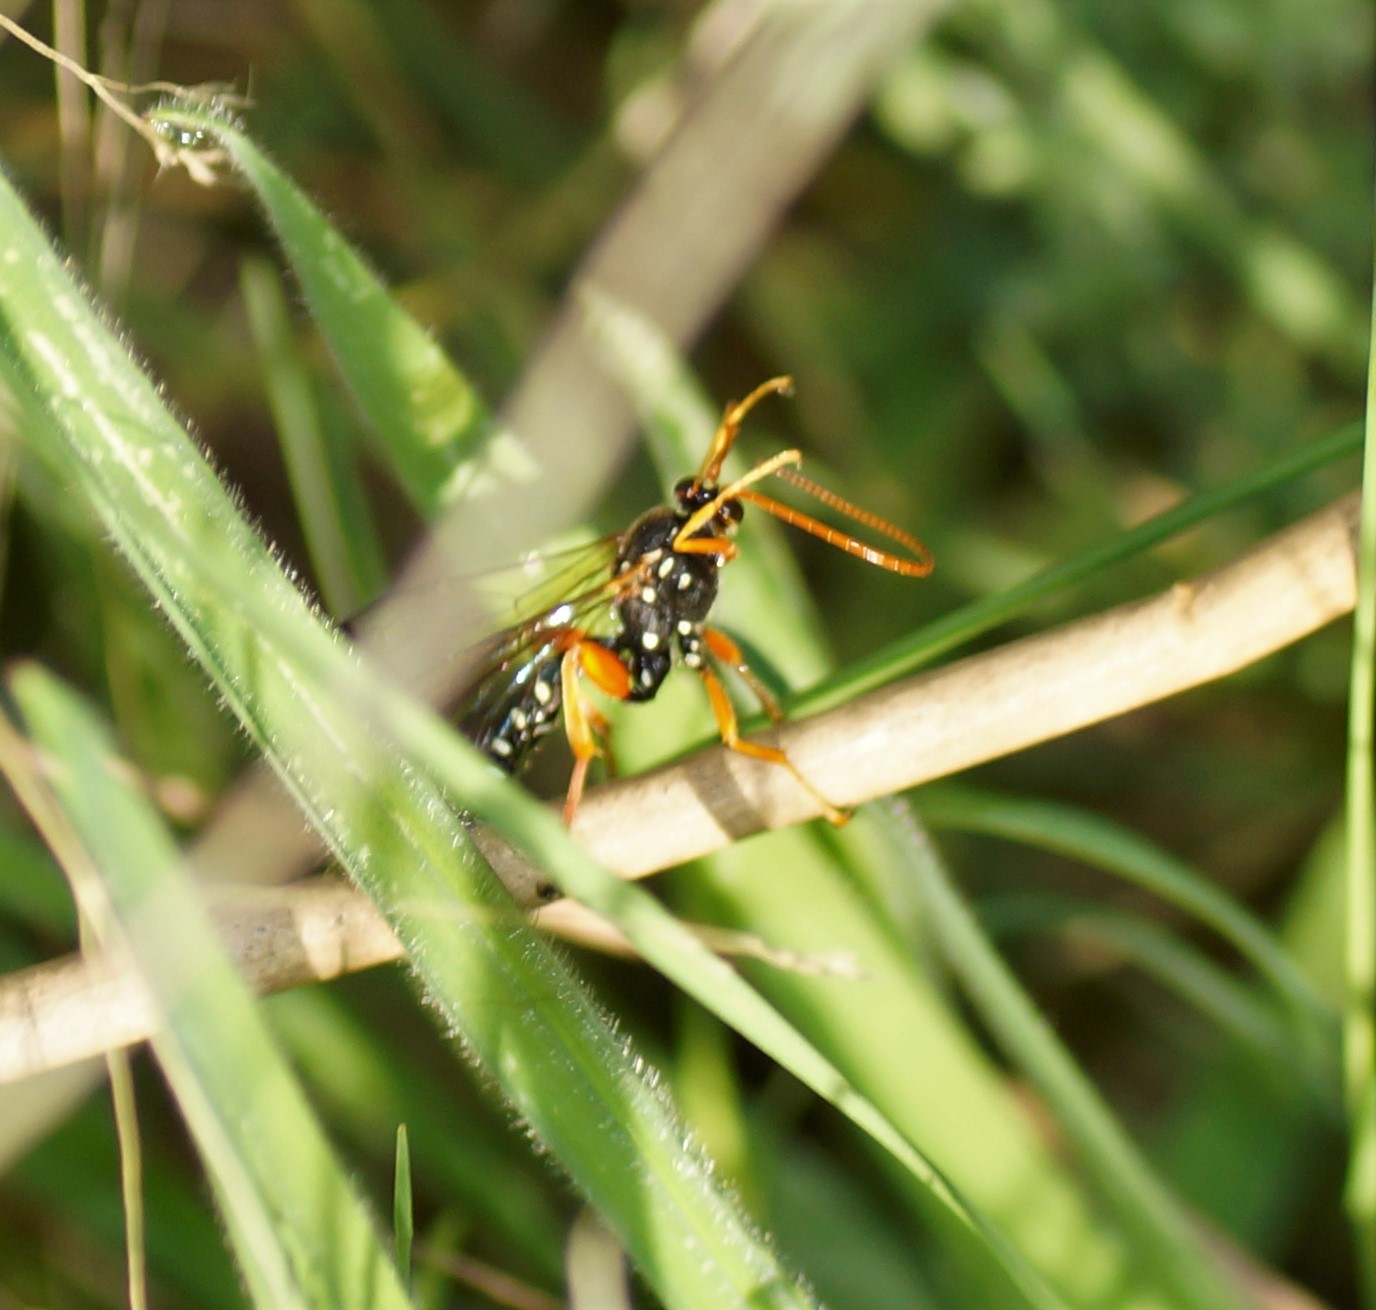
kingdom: Animalia
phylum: Arthropoda
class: Insecta
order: Hymenoptera
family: Ichneumonidae
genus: Echthromorpha
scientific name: Echthromorpha intricatoria
